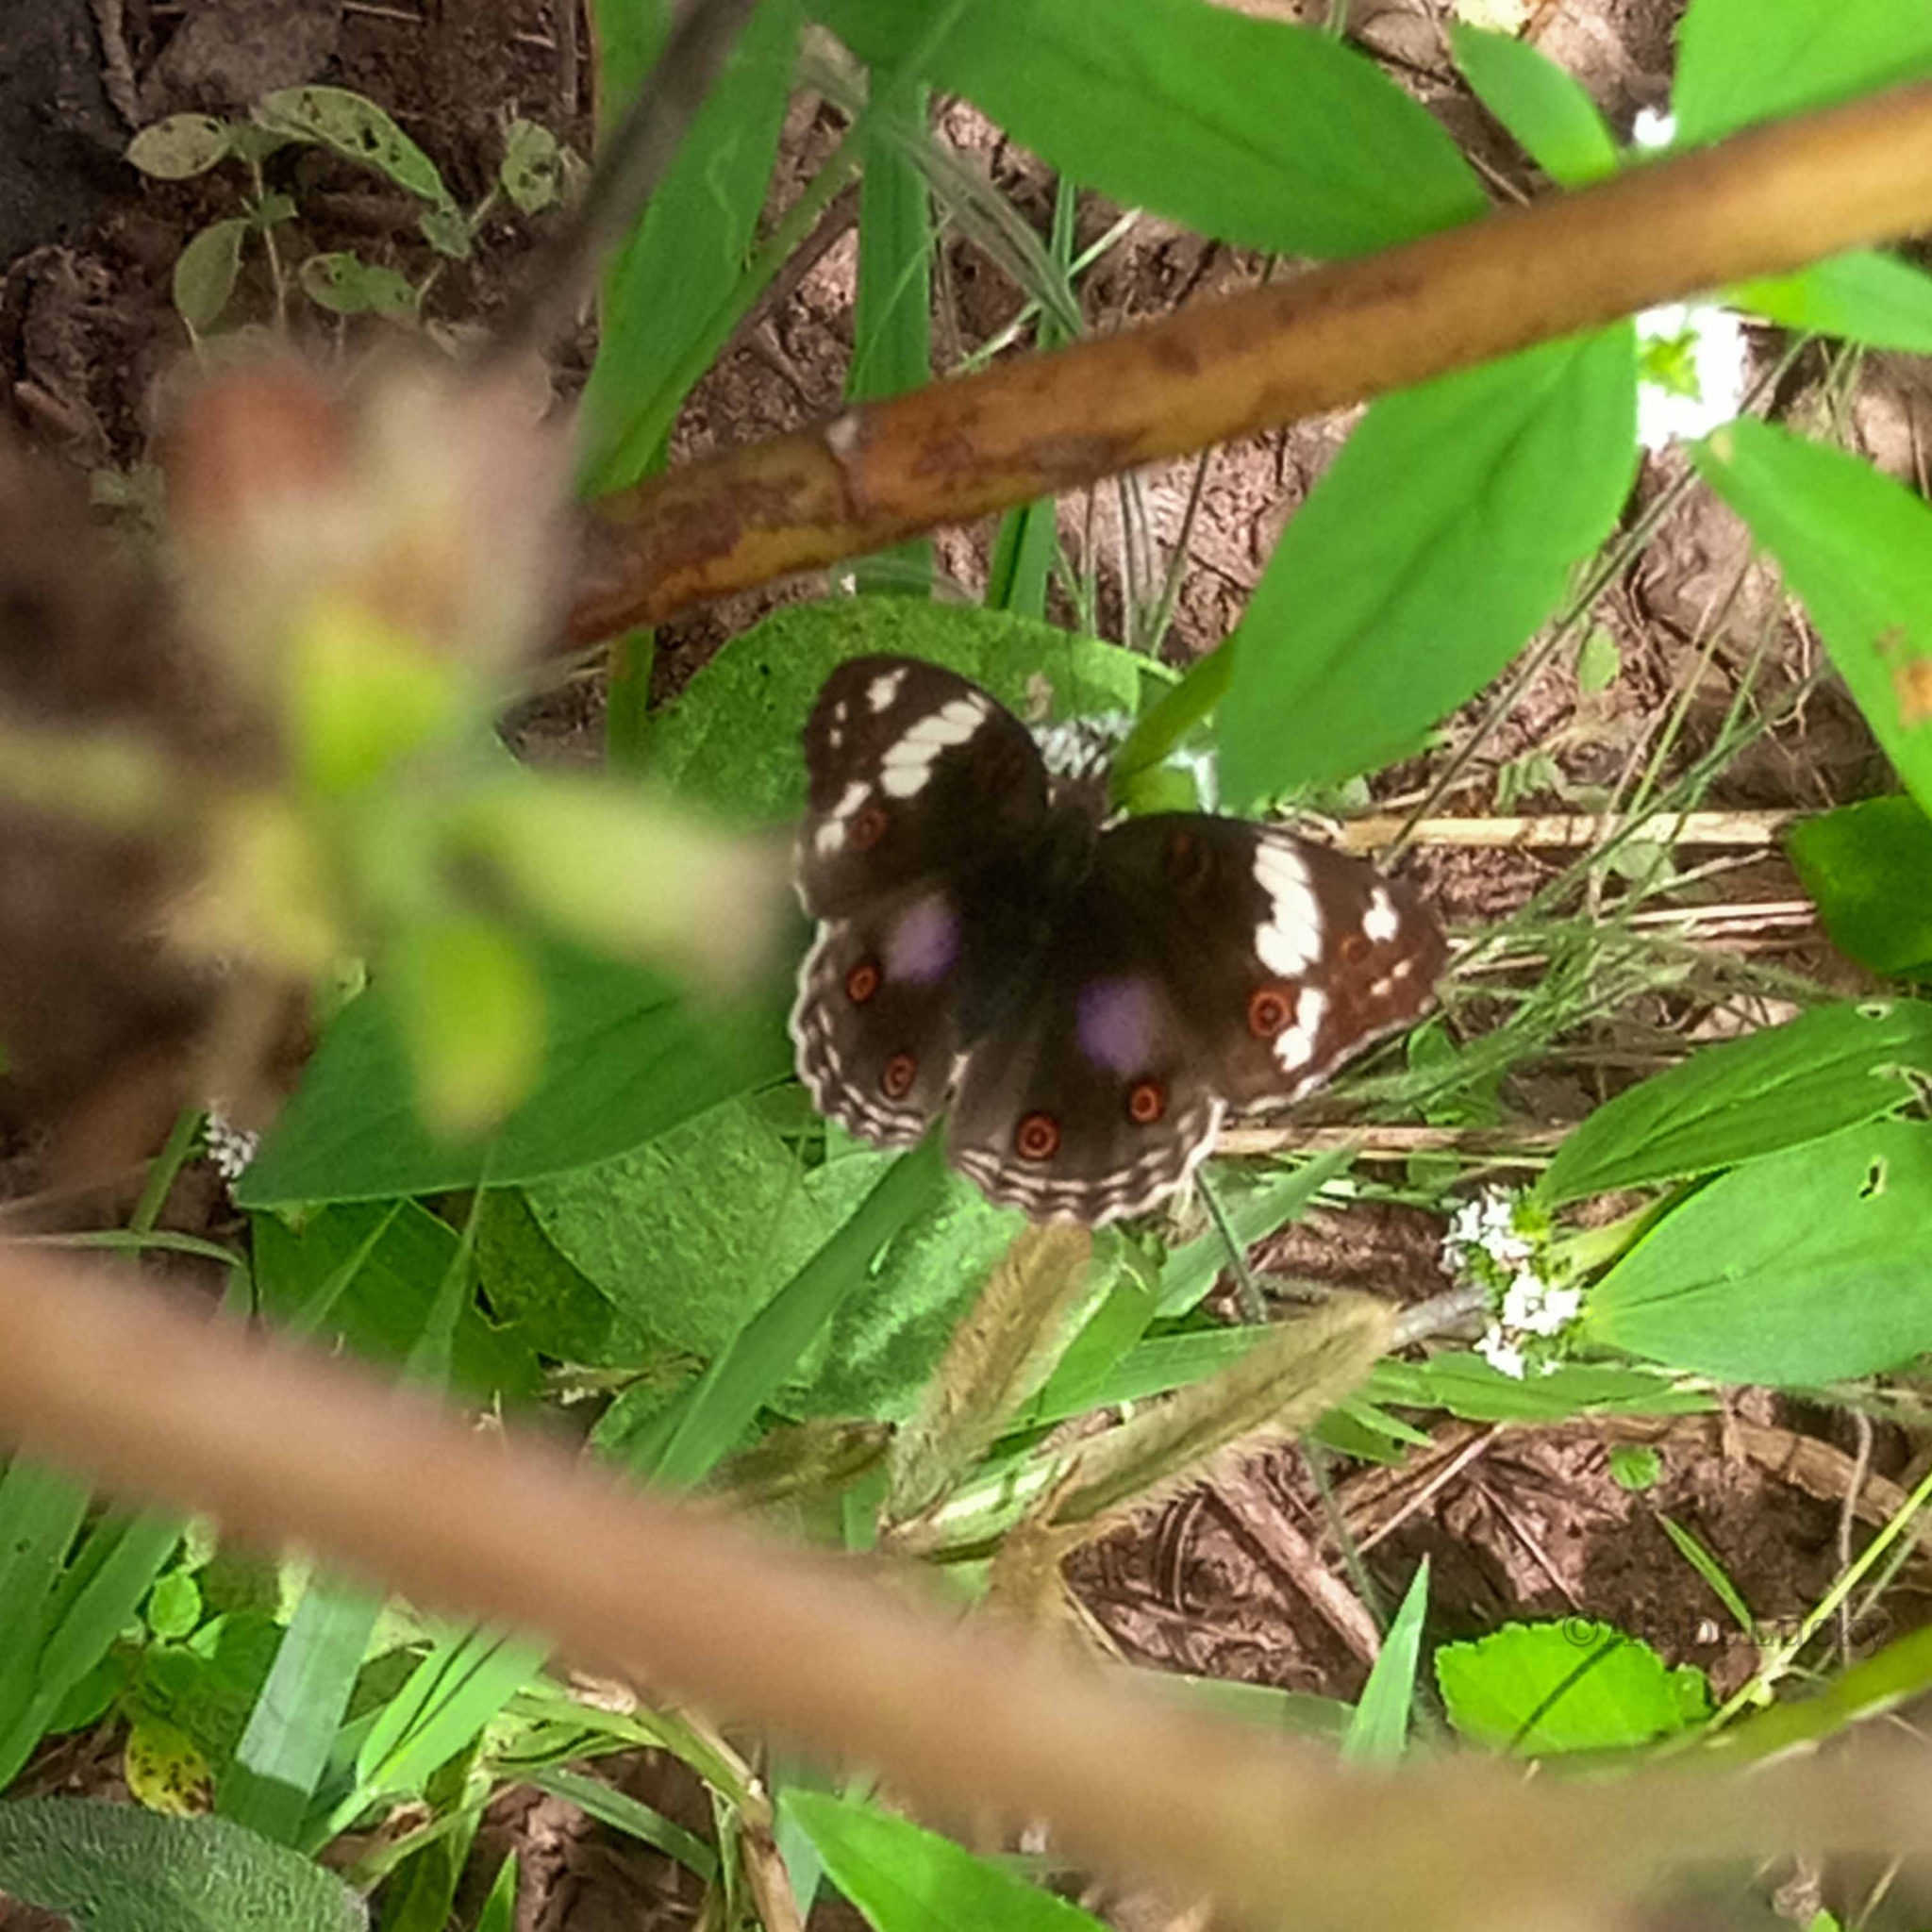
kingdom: Animalia
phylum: Arthropoda
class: Insecta
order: Lepidoptera
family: Nymphalidae
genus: Junonia
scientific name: Junonia oenone
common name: Dark blue pansy
